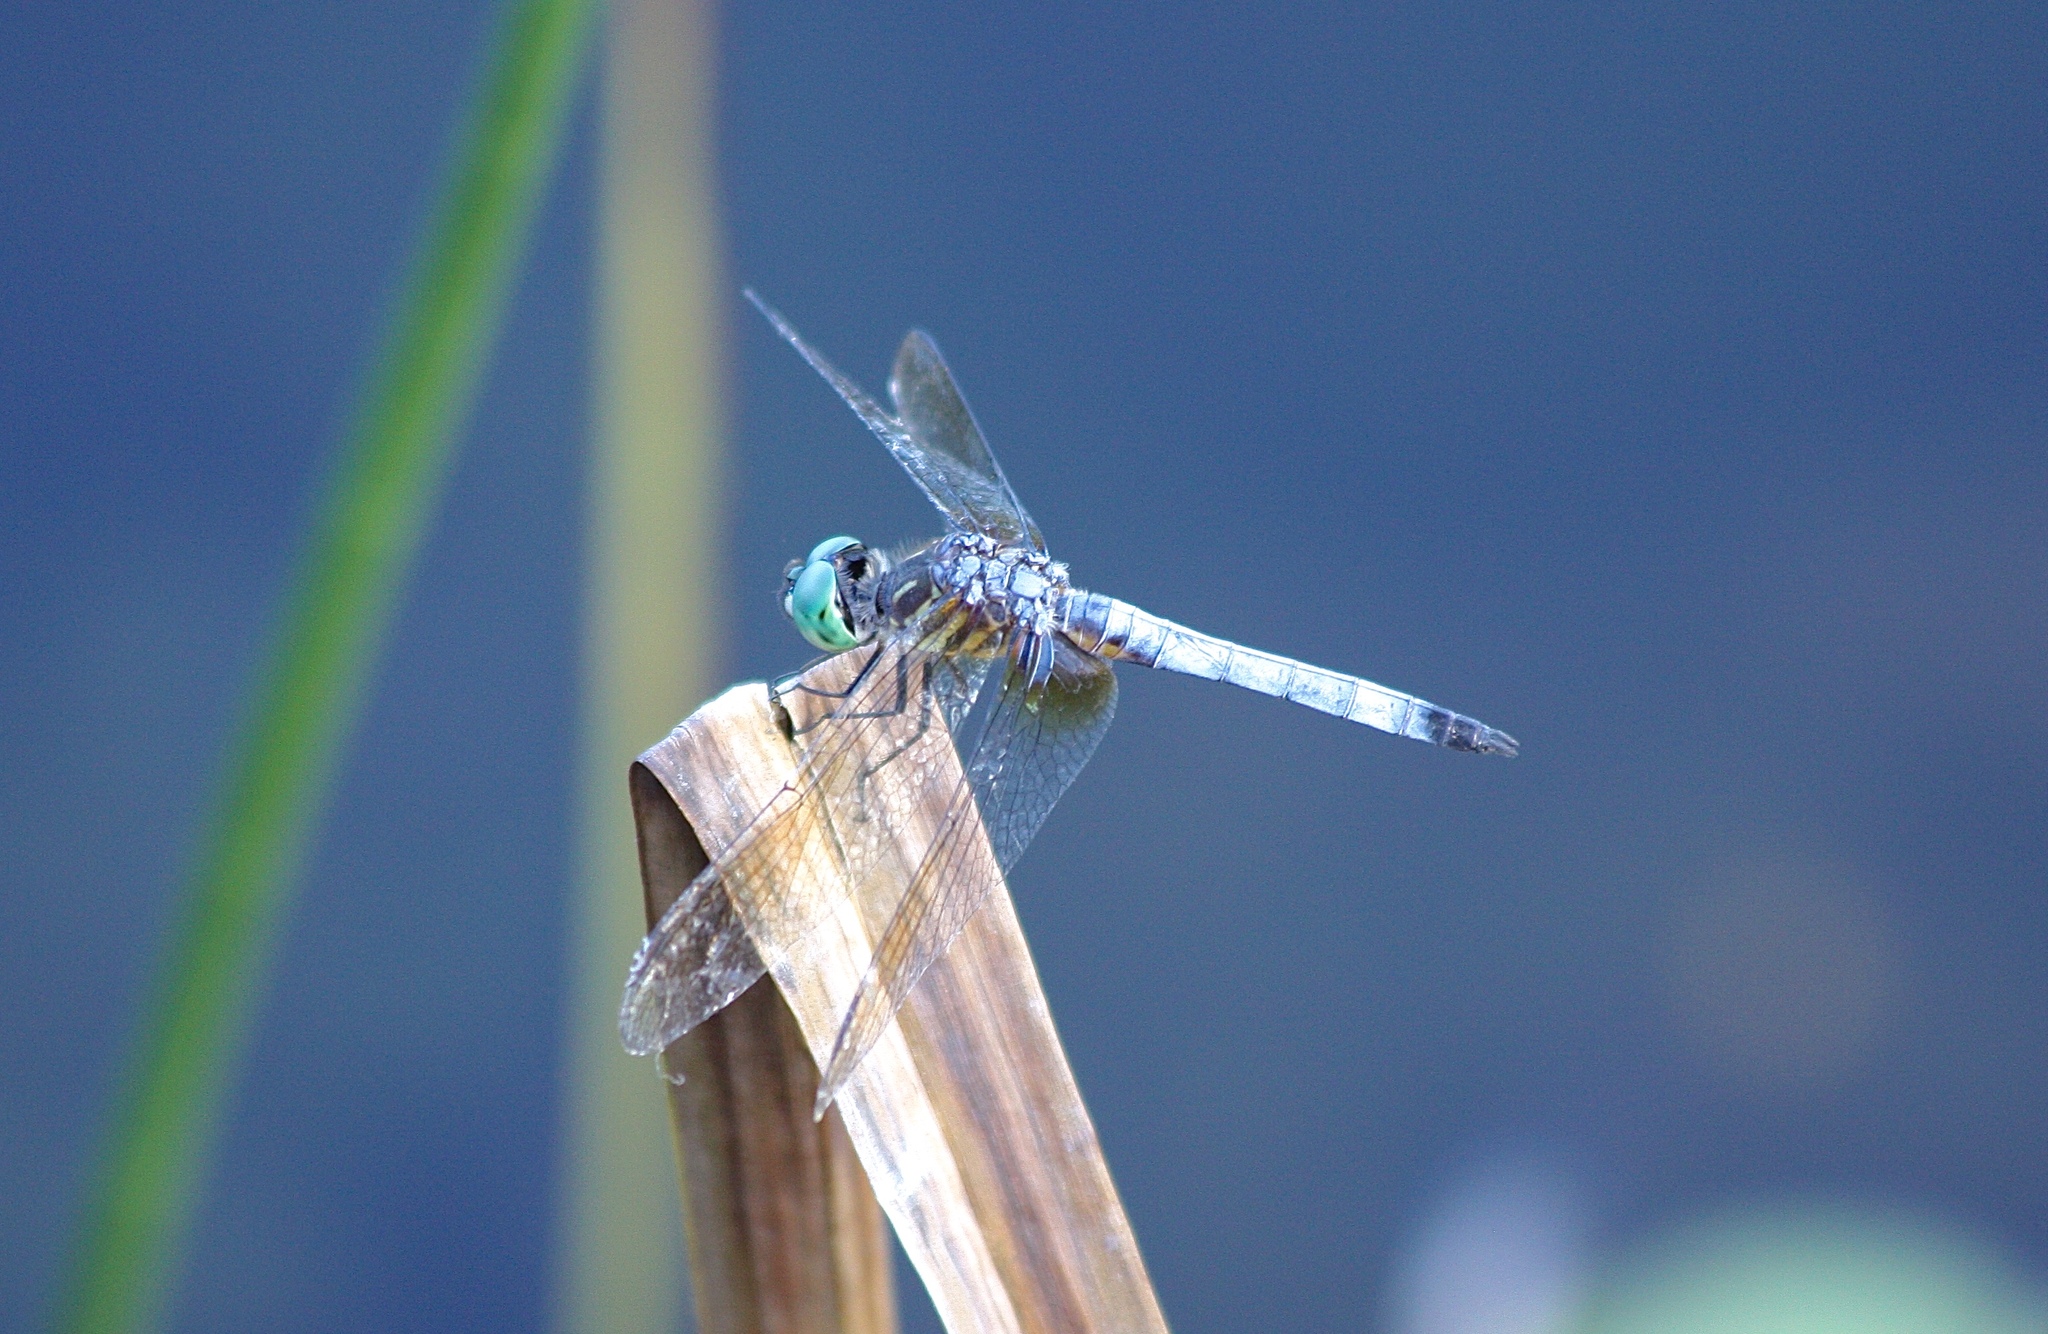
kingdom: Animalia
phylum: Arthropoda
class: Insecta
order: Odonata
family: Libellulidae
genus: Pachydiplax
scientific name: Pachydiplax longipennis
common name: Blue dasher
